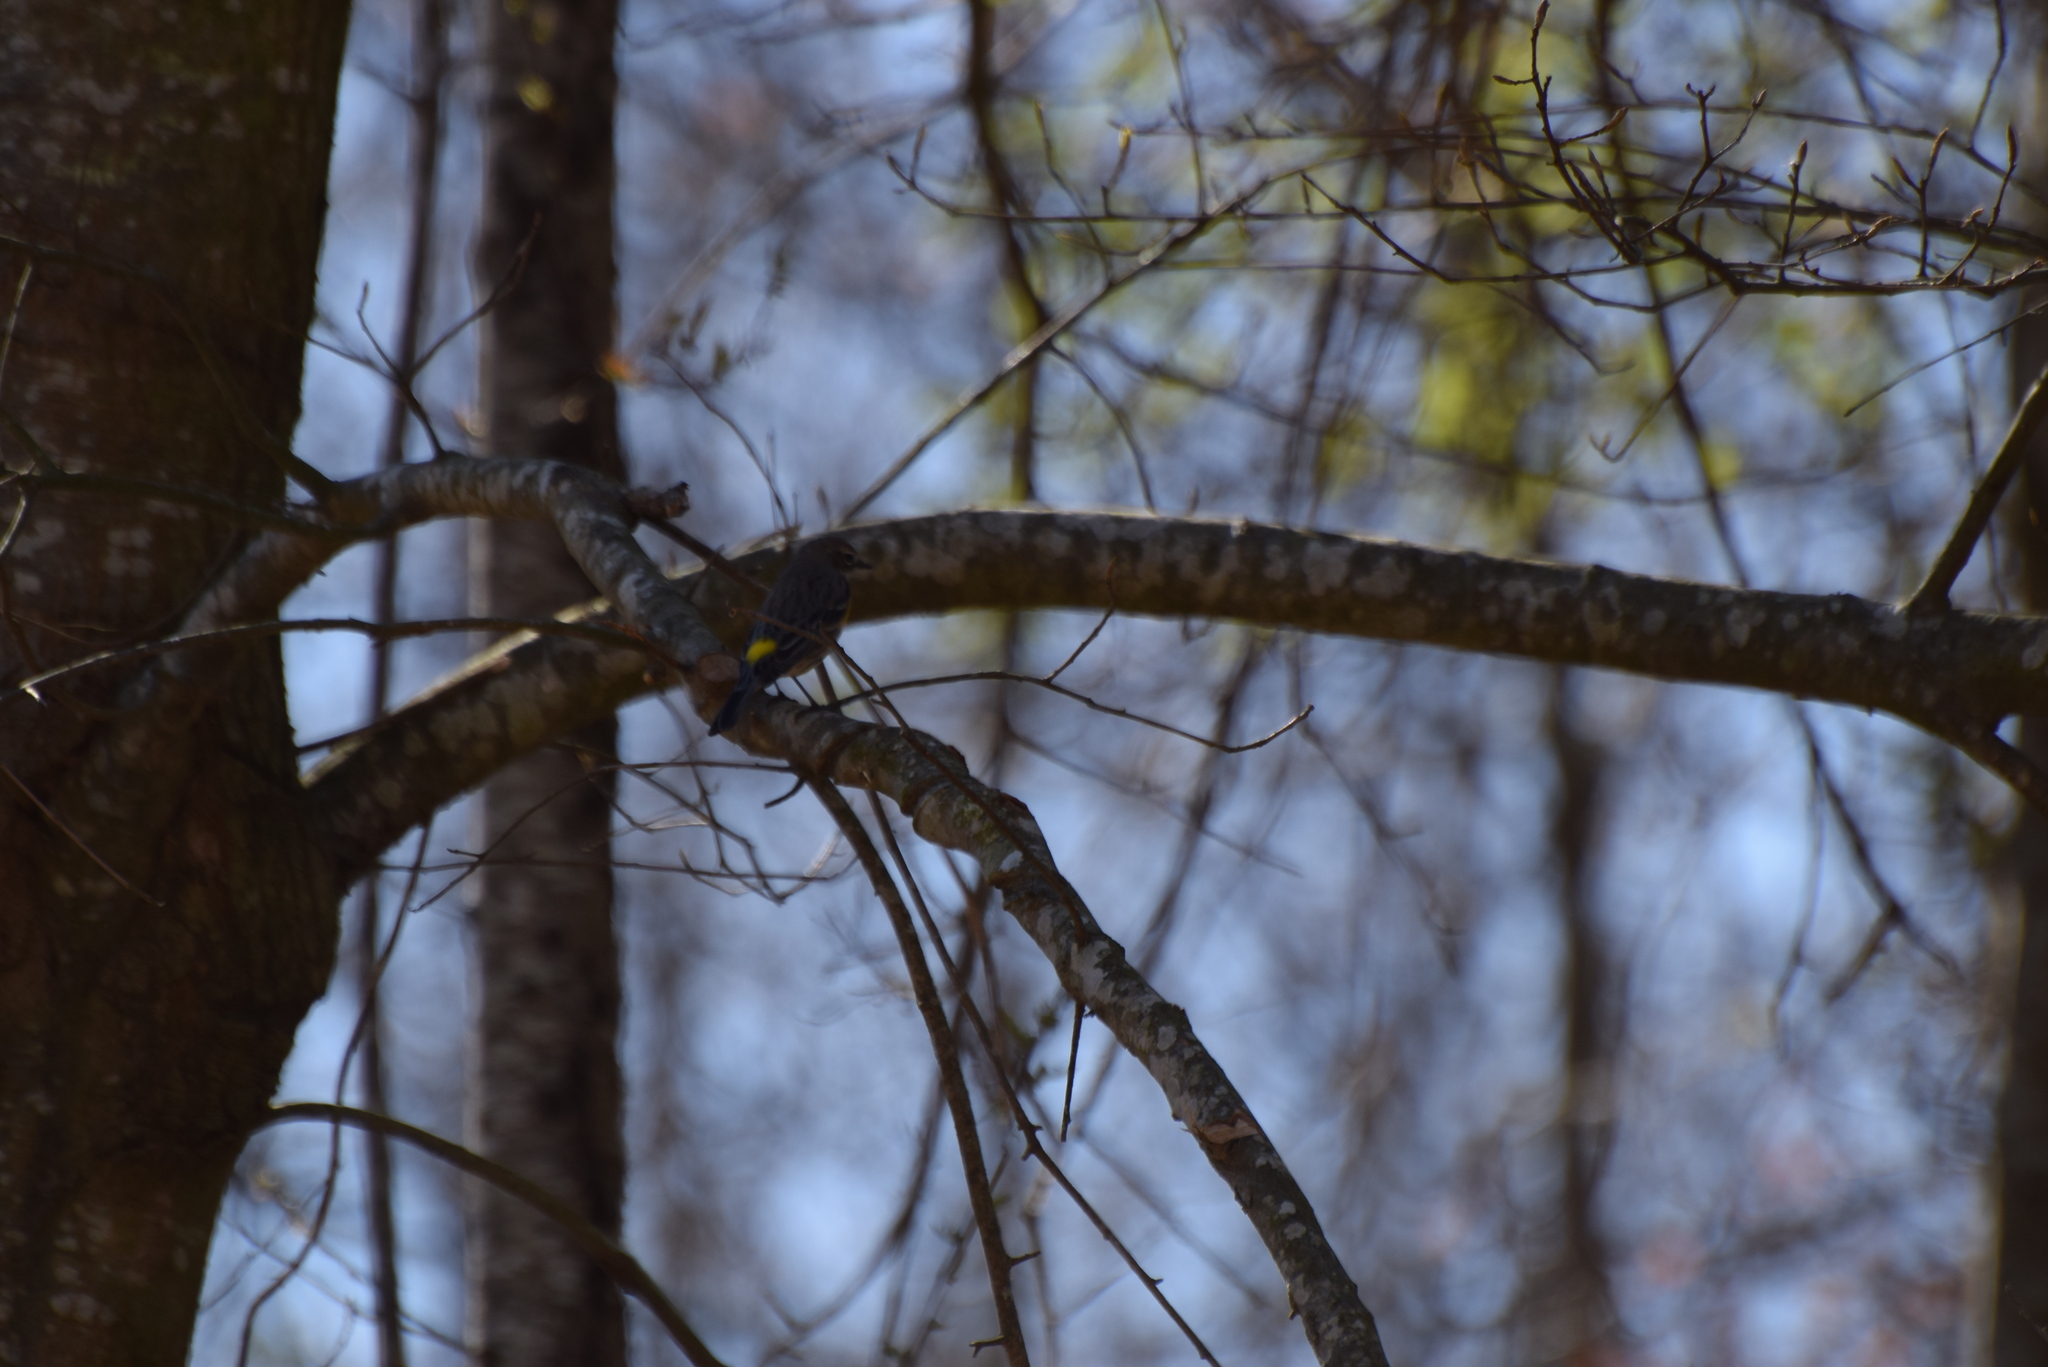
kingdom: Animalia
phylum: Chordata
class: Aves
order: Passeriformes
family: Parulidae
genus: Setophaga
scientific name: Setophaga coronata
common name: Myrtle warbler
